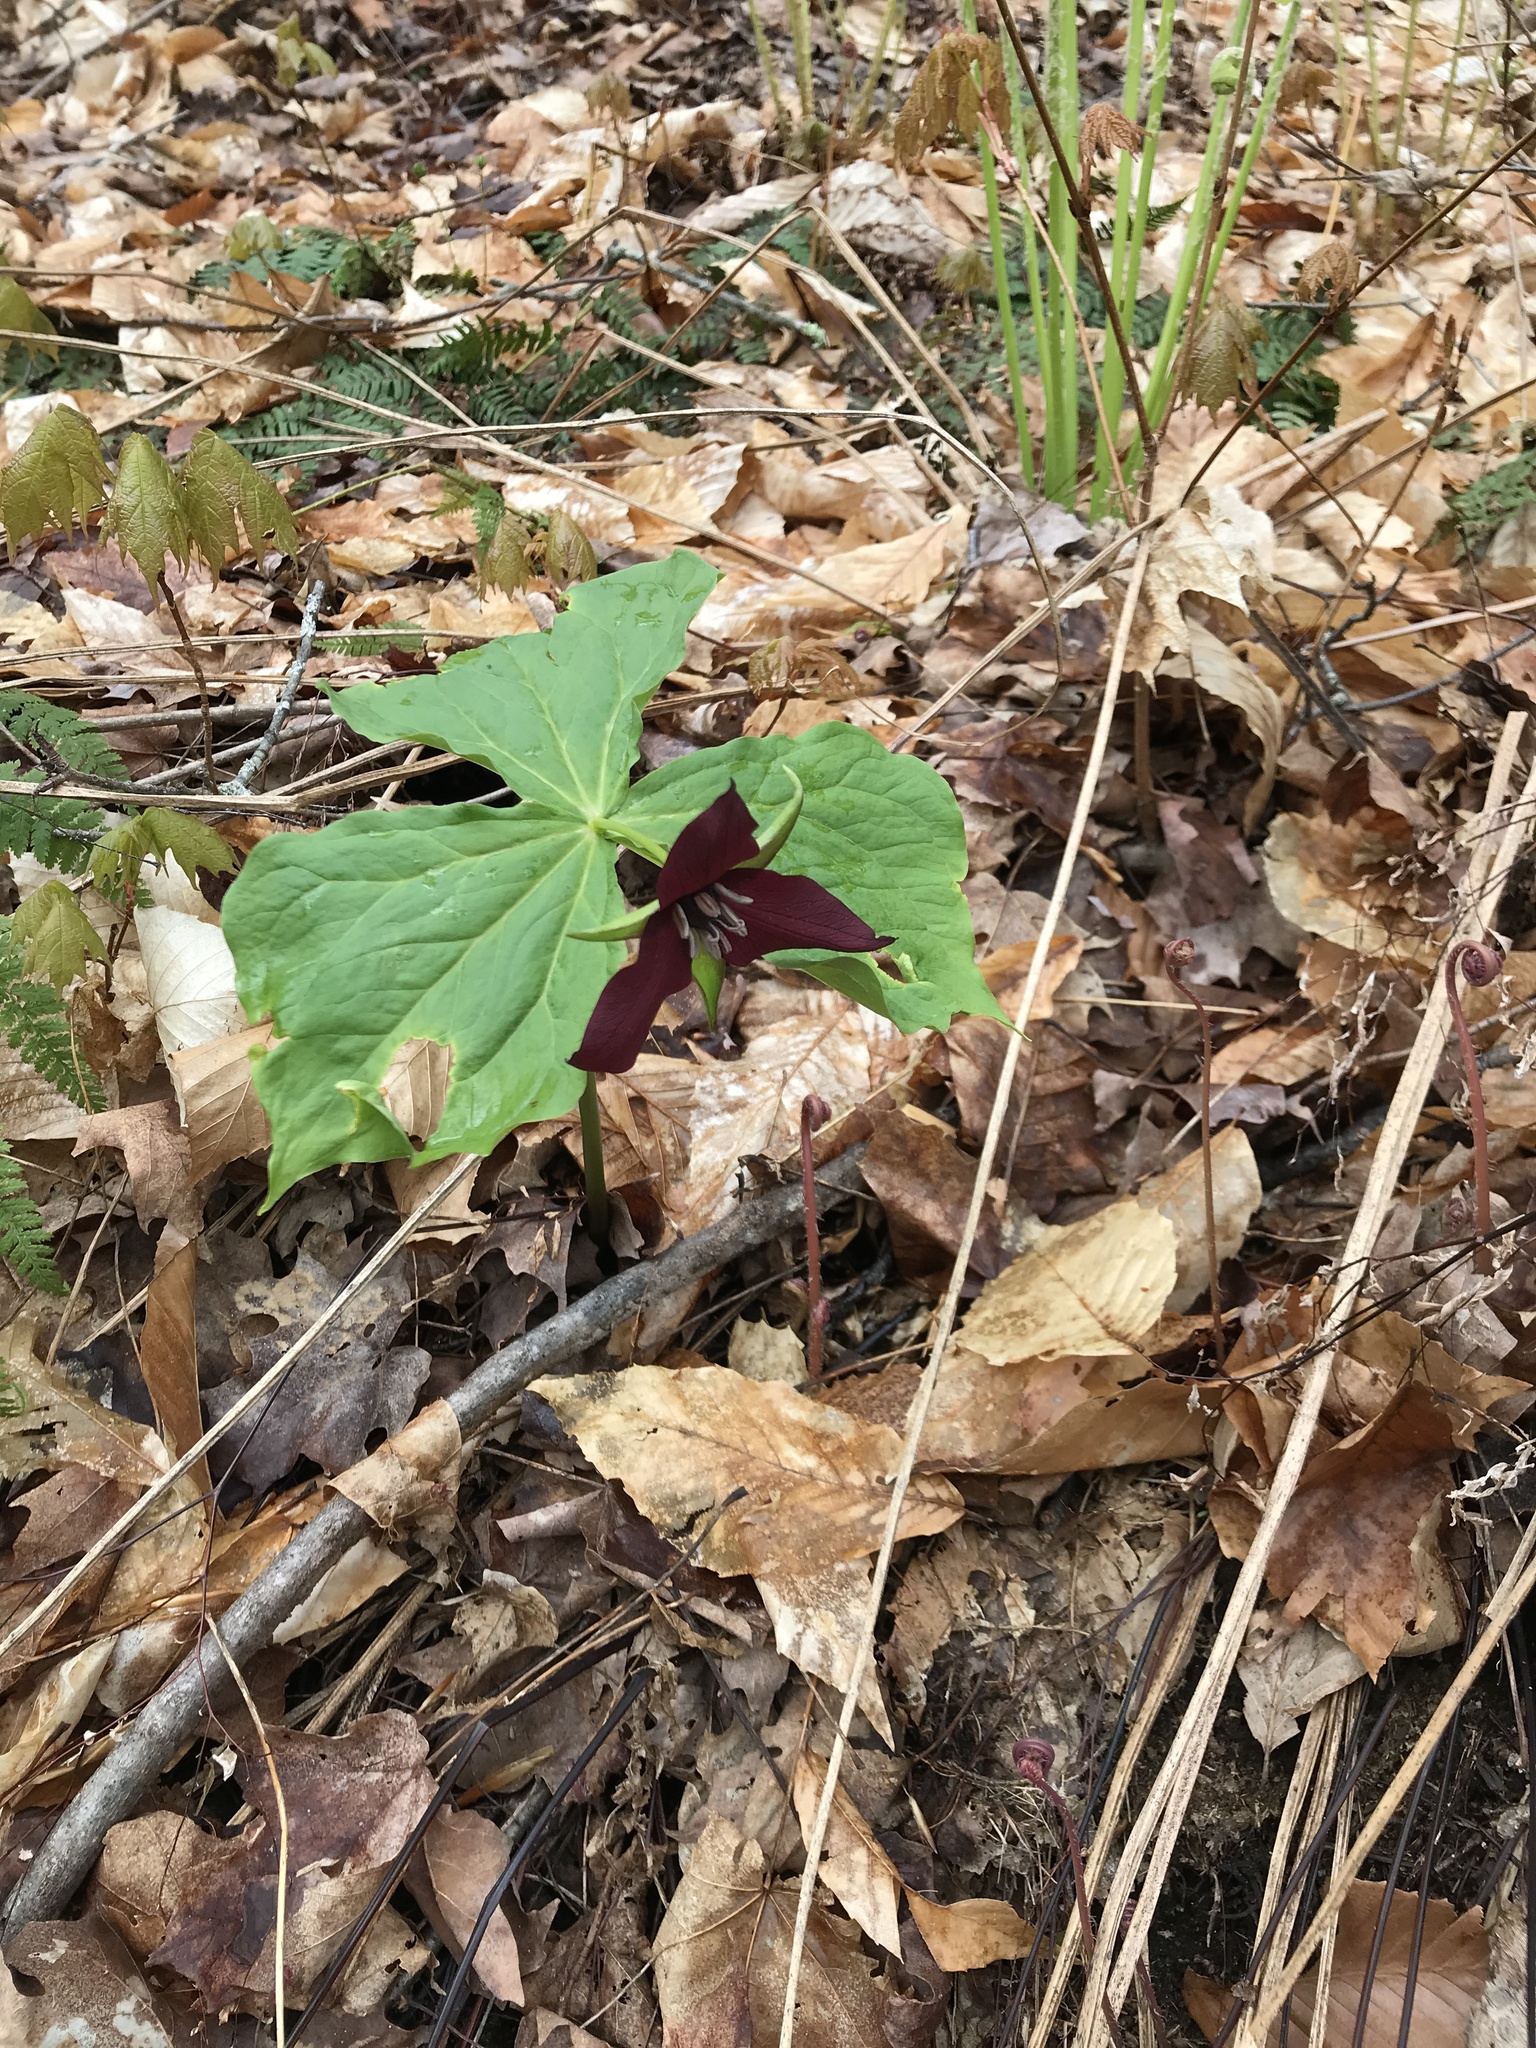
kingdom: Plantae
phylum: Tracheophyta
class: Liliopsida
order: Liliales
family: Melanthiaceae
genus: Trillium
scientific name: Trillium erectum
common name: Purple trillium
